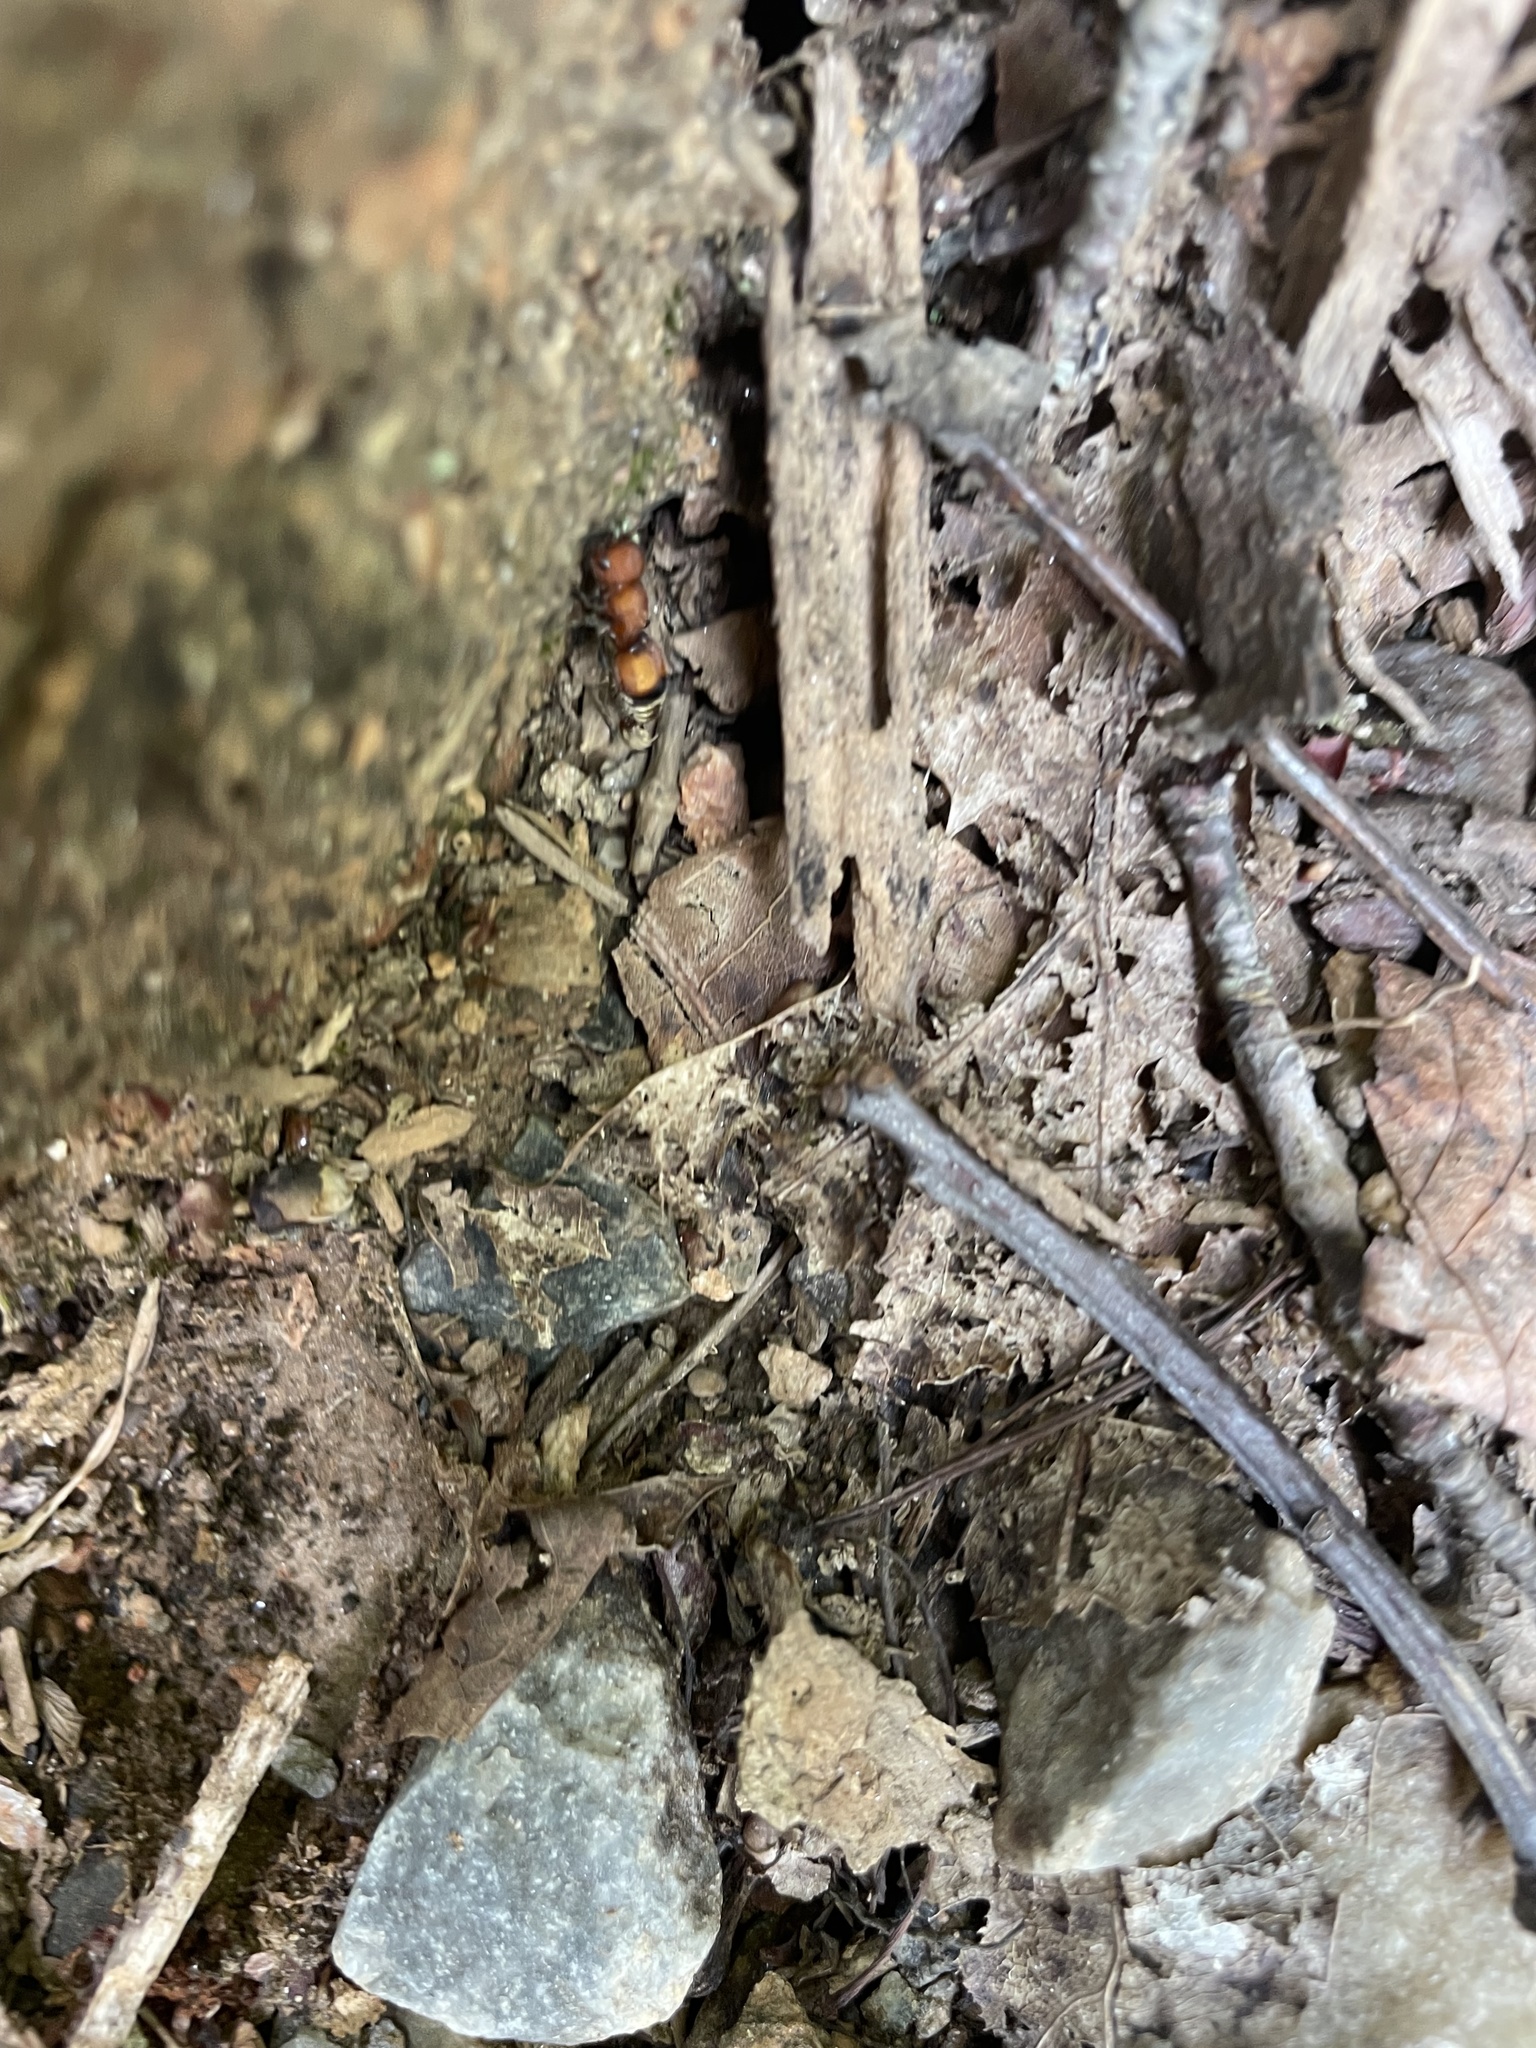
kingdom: Animalia
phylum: Arthropoda
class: Insecta
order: Hymenoptera
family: Mutillidae
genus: Pseudomethoca
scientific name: Pseudomethoca
